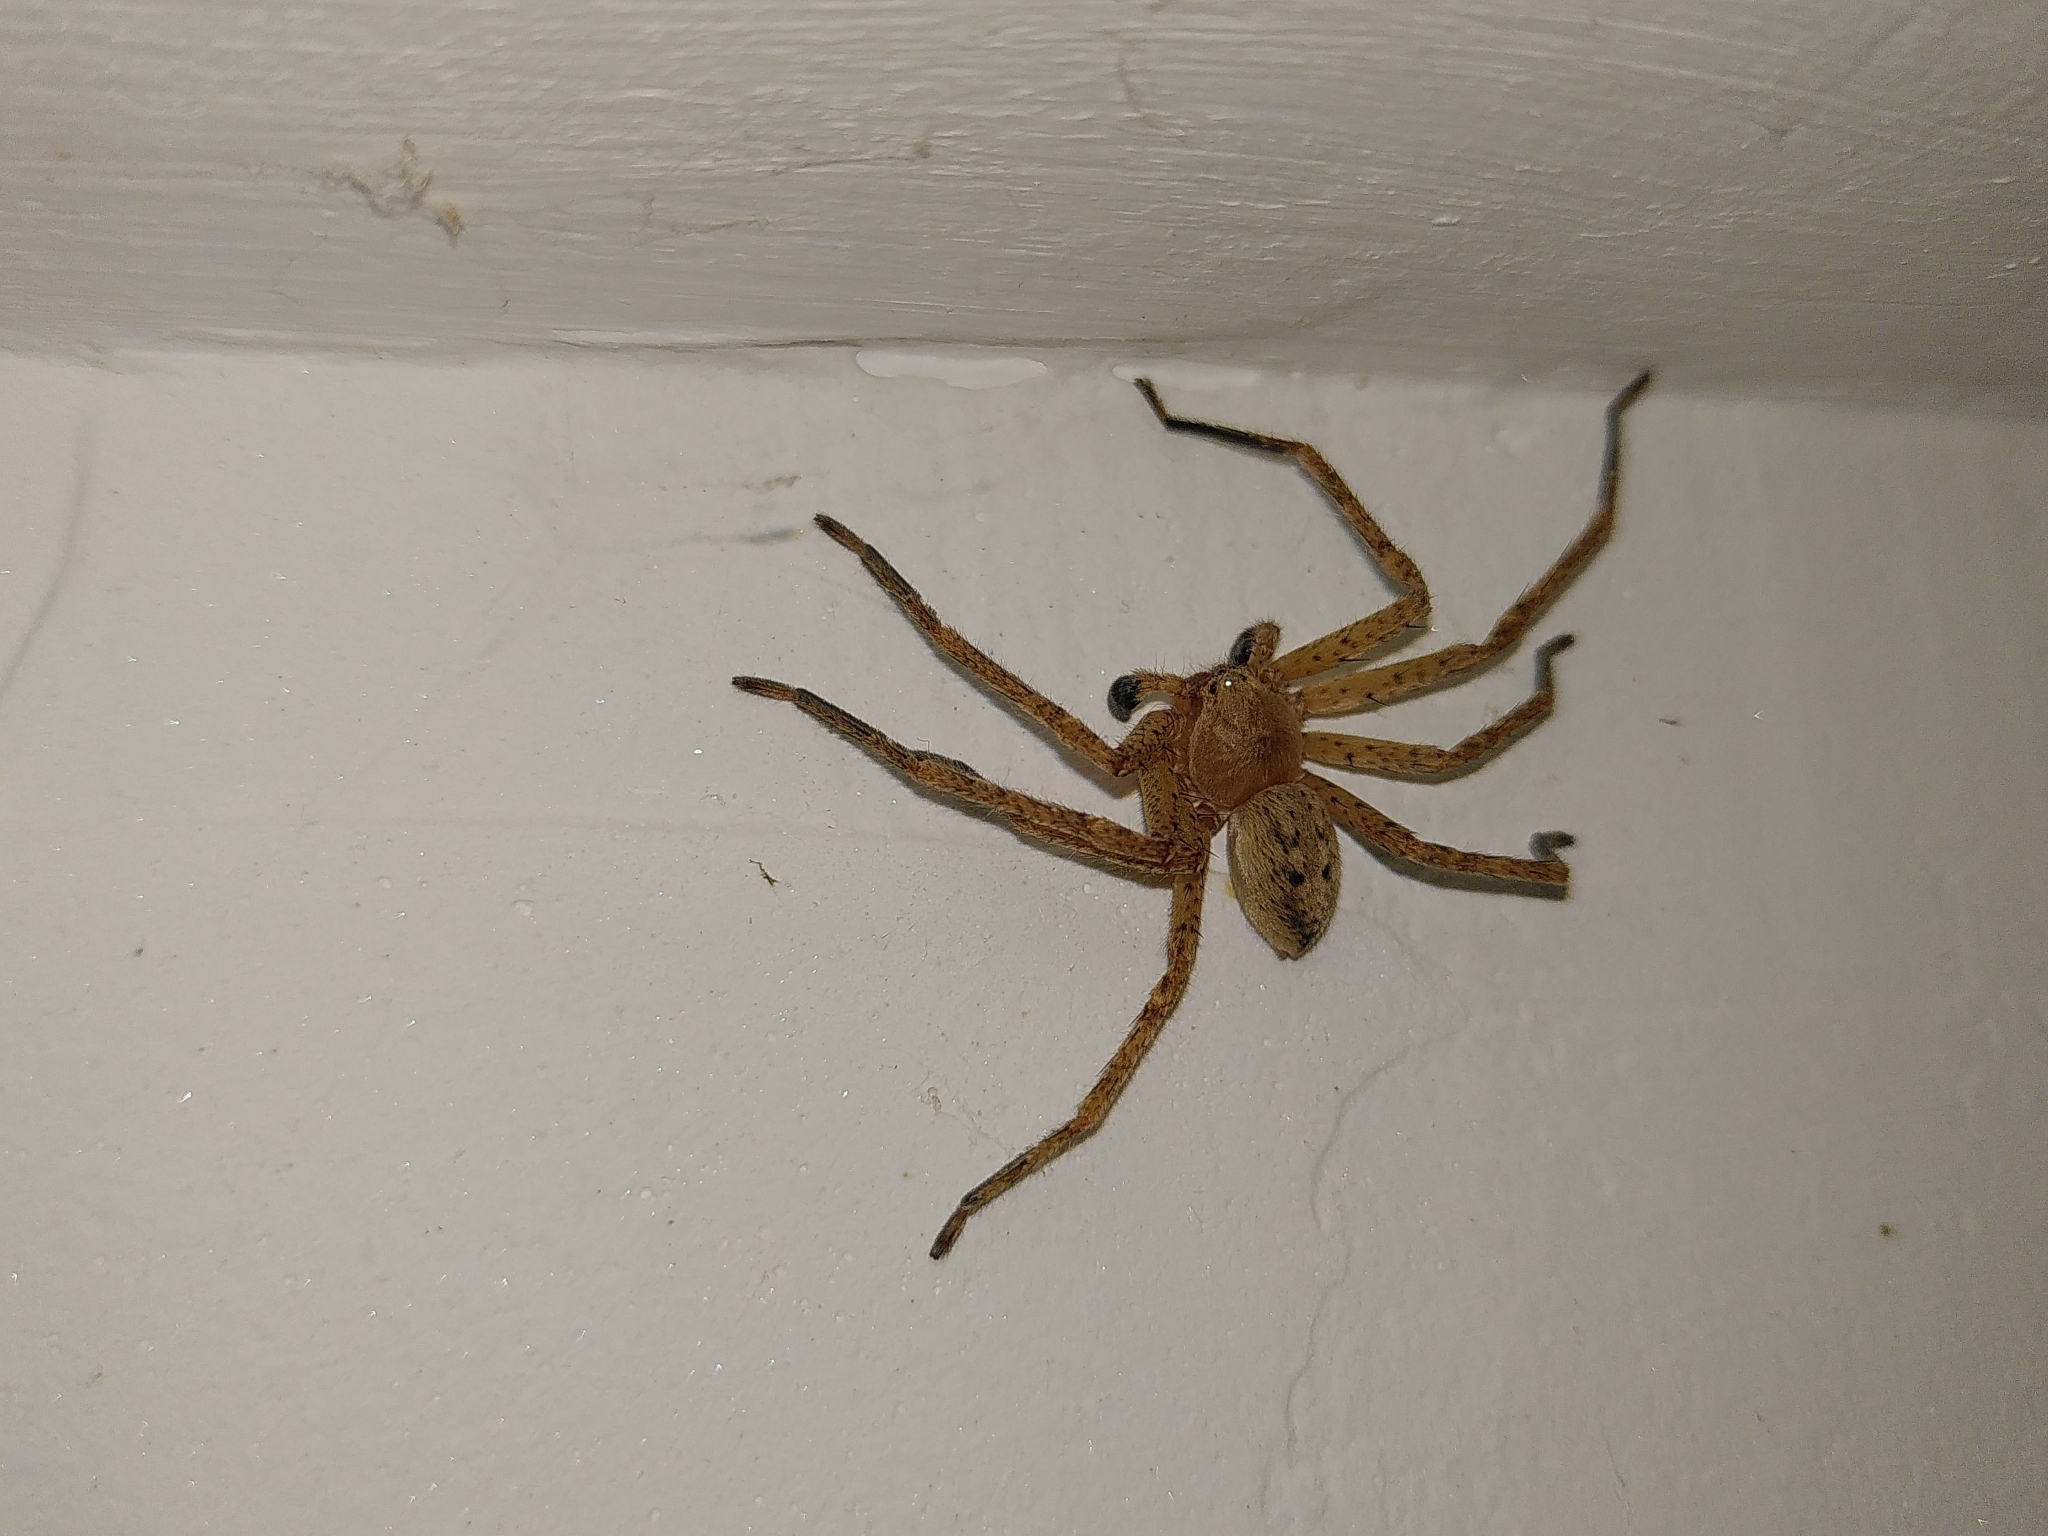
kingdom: Animalia
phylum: Arthropoda
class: Arachnida
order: Araneae
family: Sparassidae
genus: Olios
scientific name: Olios argelasius
